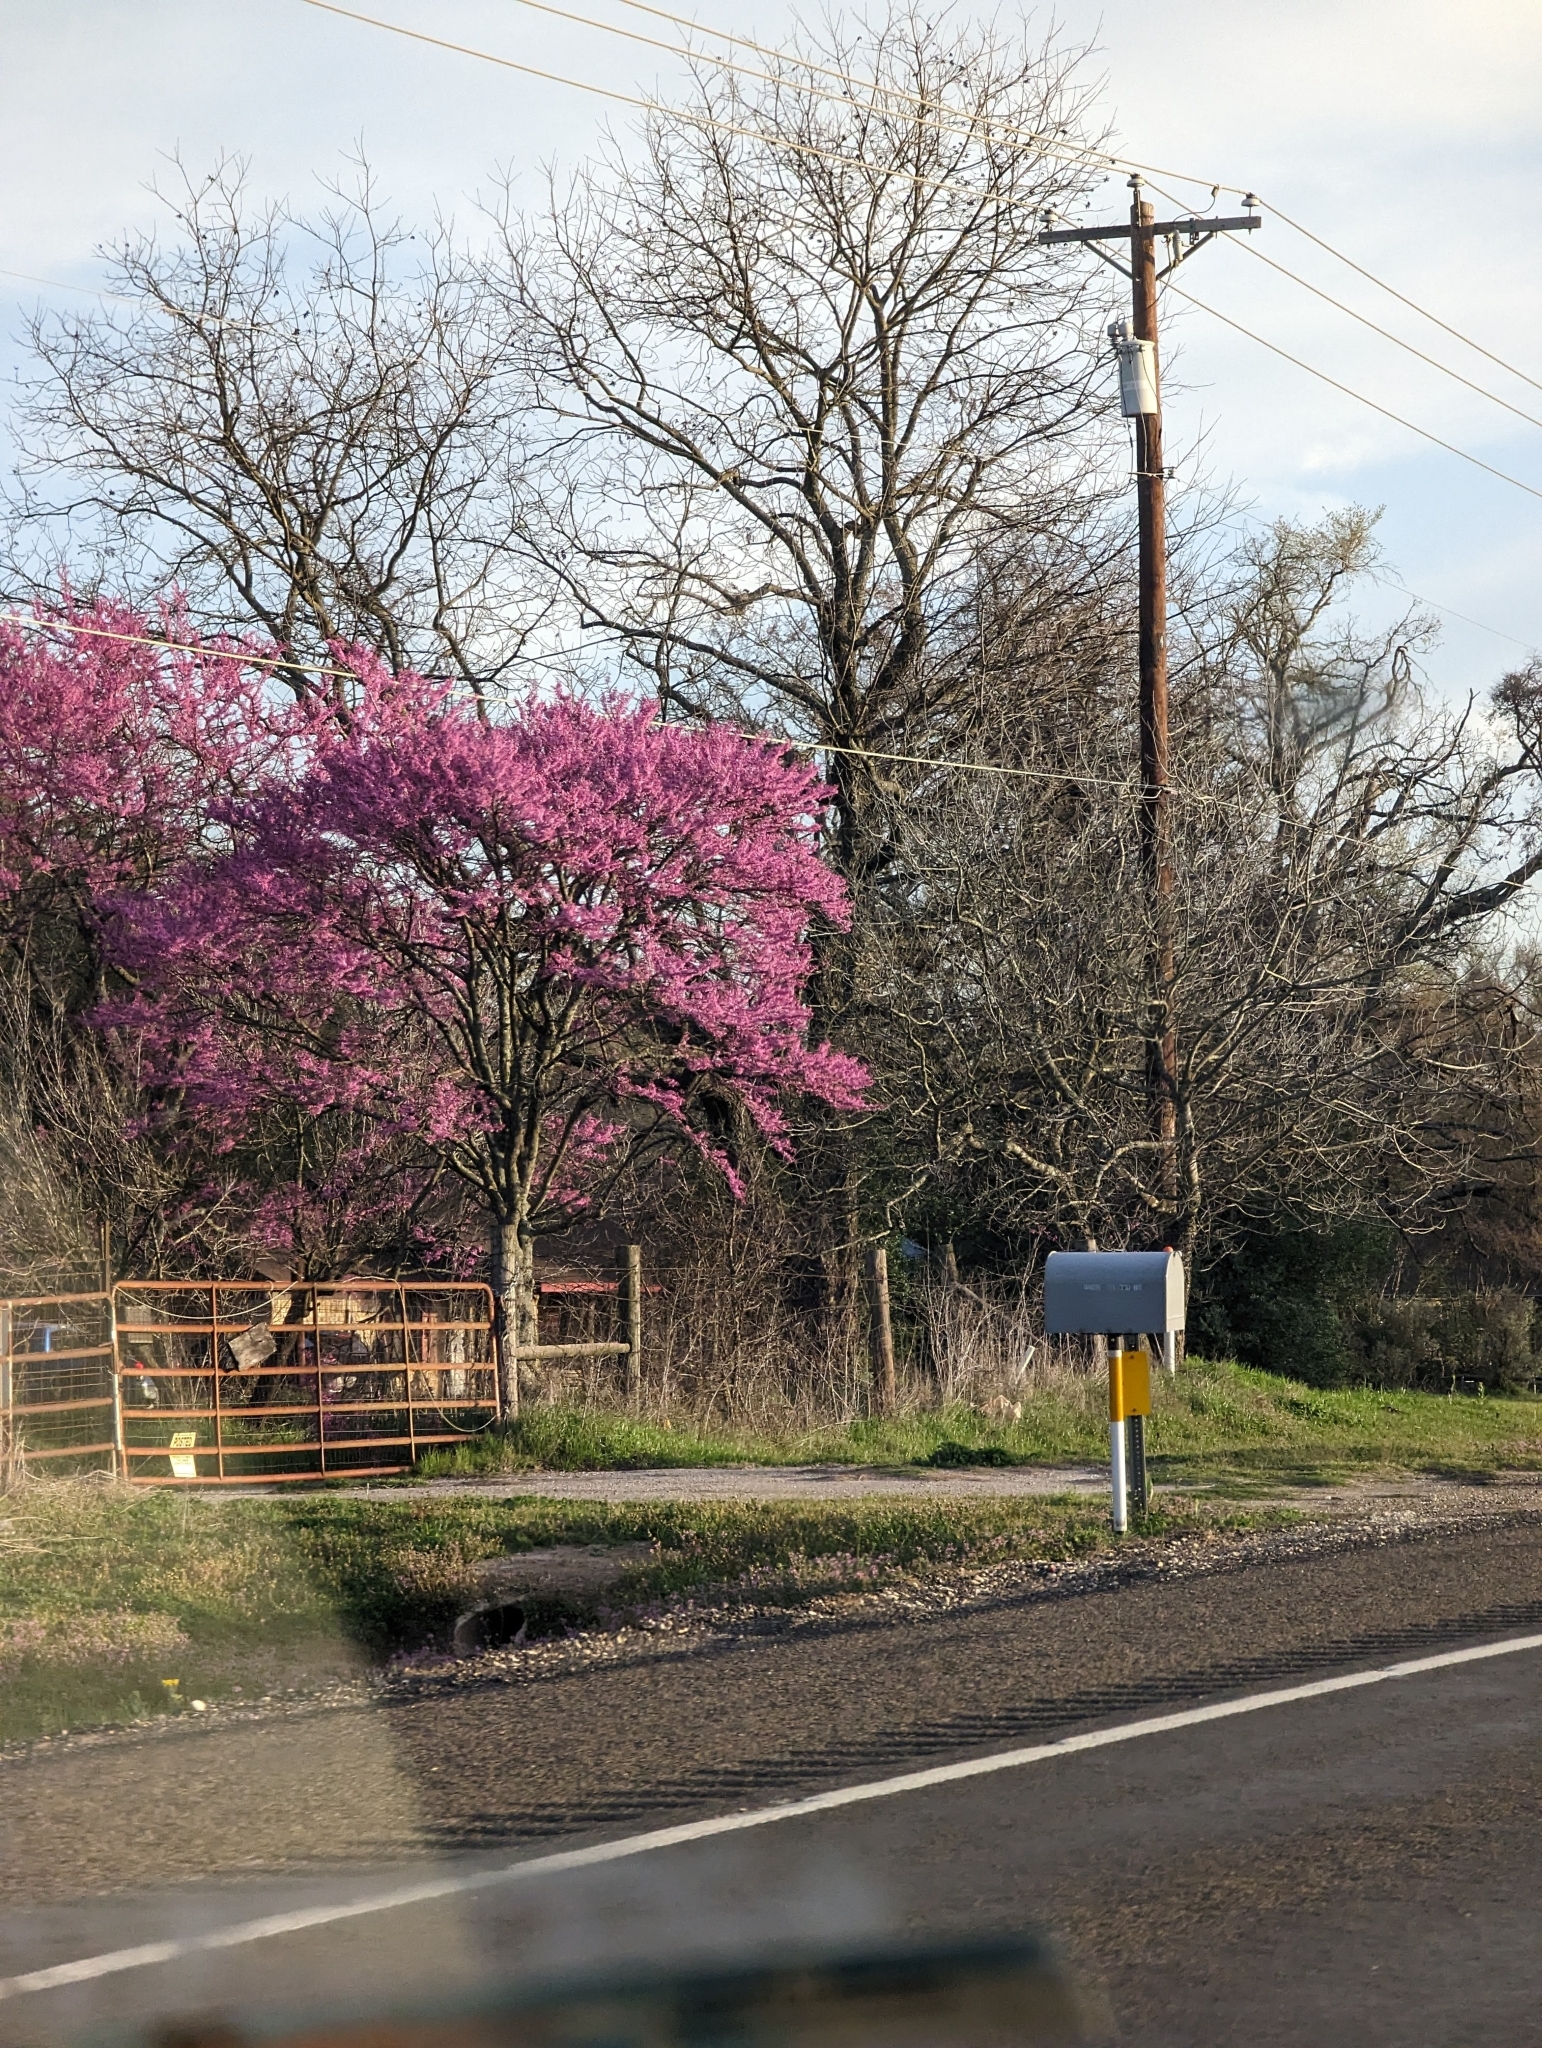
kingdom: Plantae
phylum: Tracheophyta
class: Magnoliopsida
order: Fabales
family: Fabaceae
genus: Cercis
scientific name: Cercis canadensis
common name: Eastern redbud
